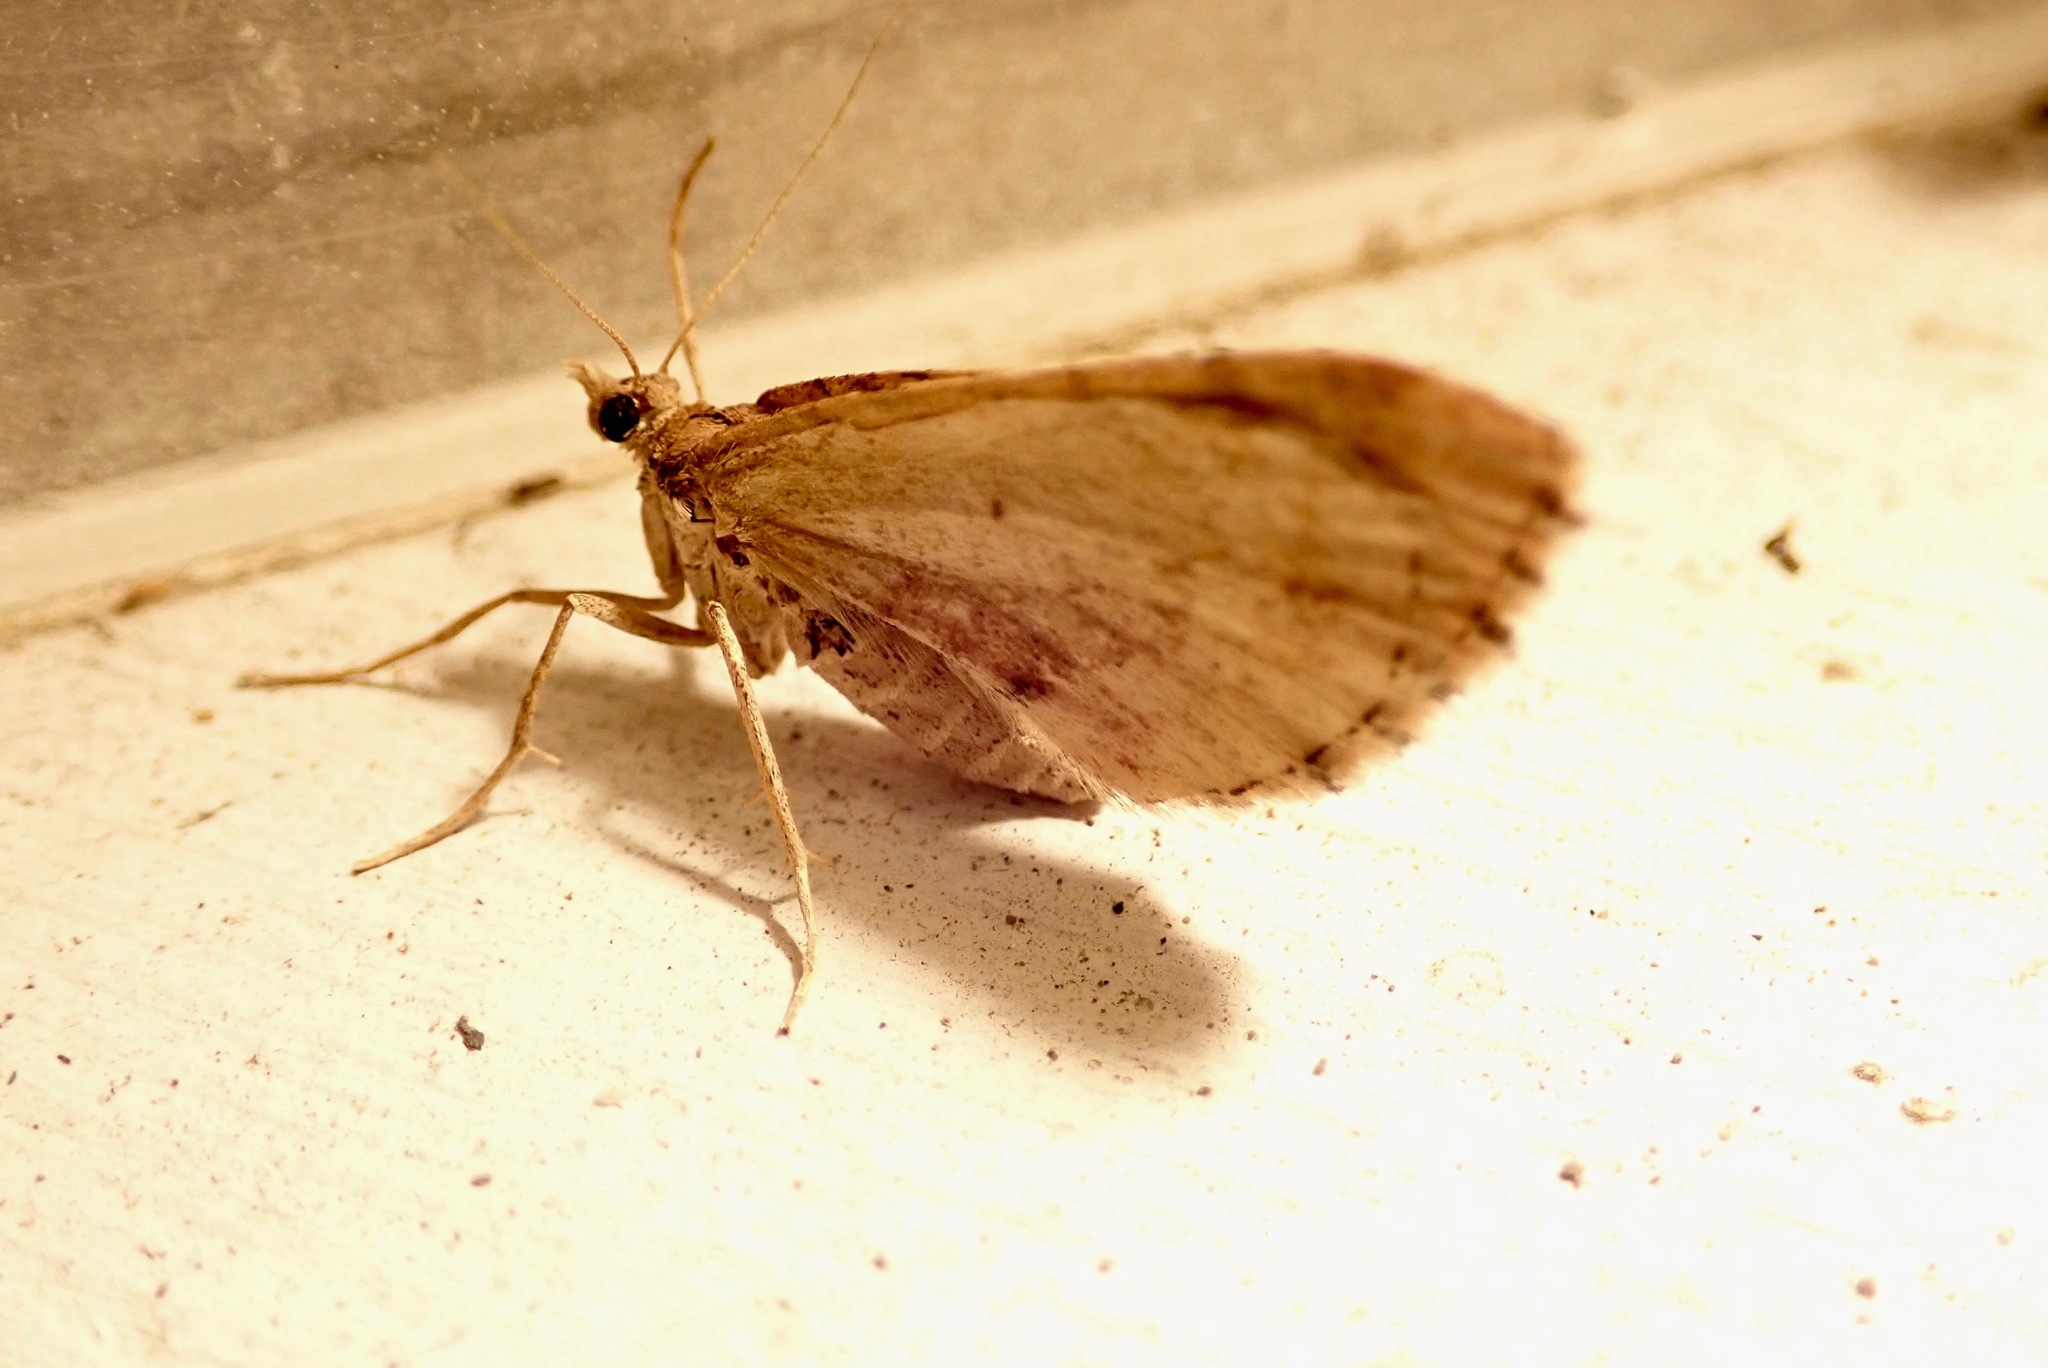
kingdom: Animalia
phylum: Arthropoda
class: Insecta
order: Lepidoptera
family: Geometridae
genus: Asaphodes
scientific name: Asaphodes aegrota
